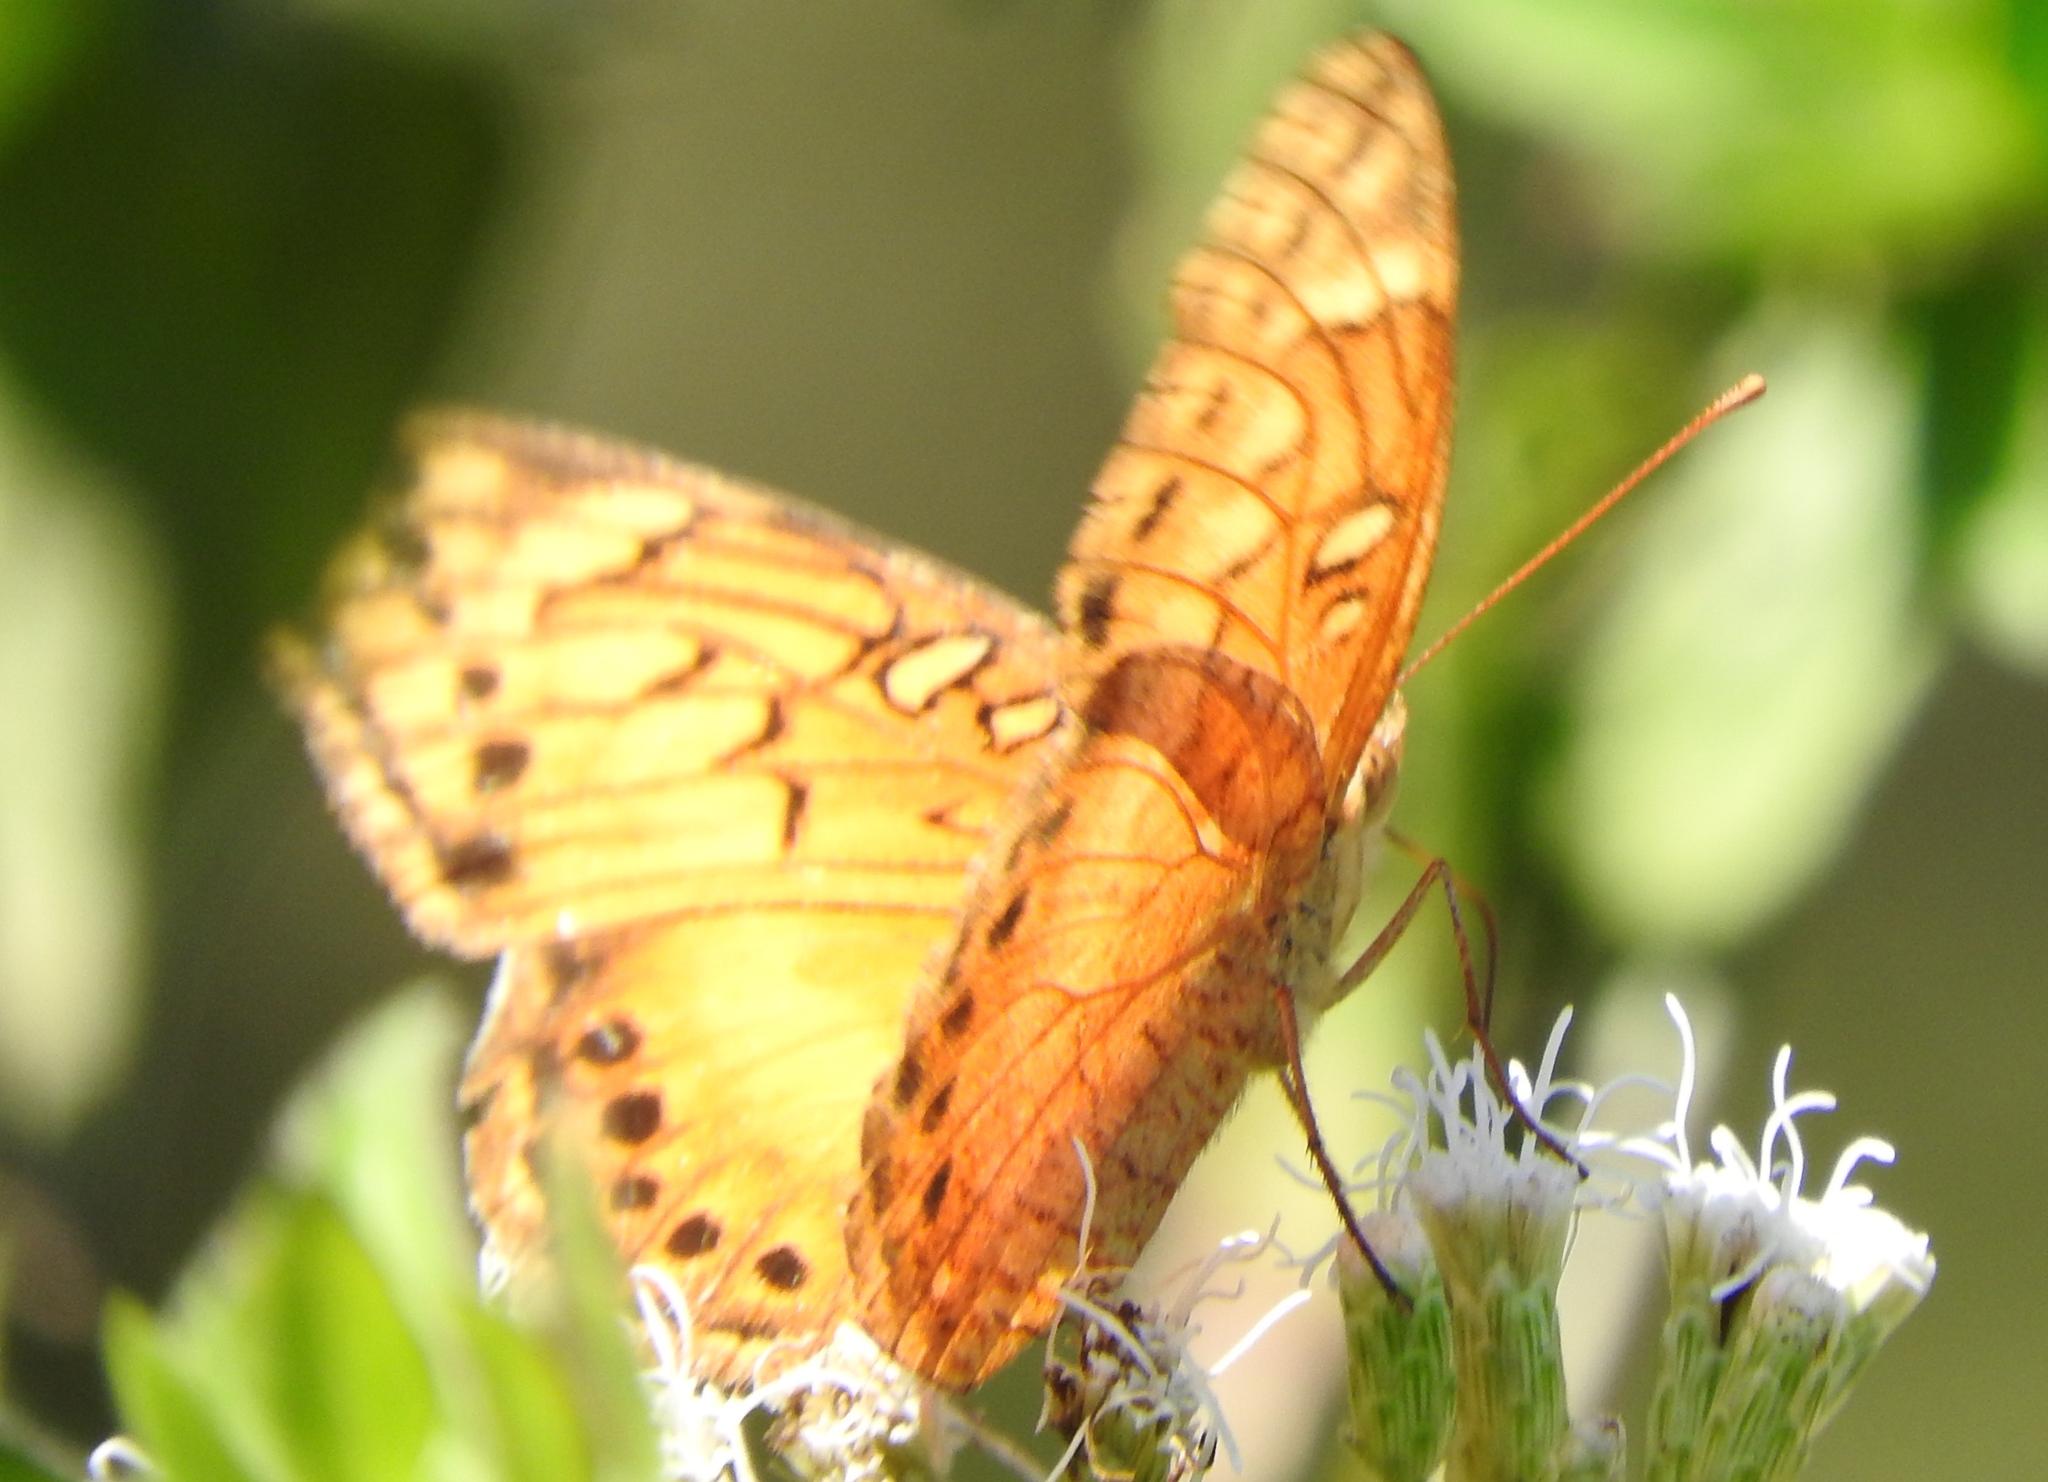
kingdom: Animalia
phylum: Arthropoda
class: Insecta
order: Lepidoptera
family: Nymphalidae
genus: Euptoieta
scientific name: Euptoieta hegesia
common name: Mexican fritillary
